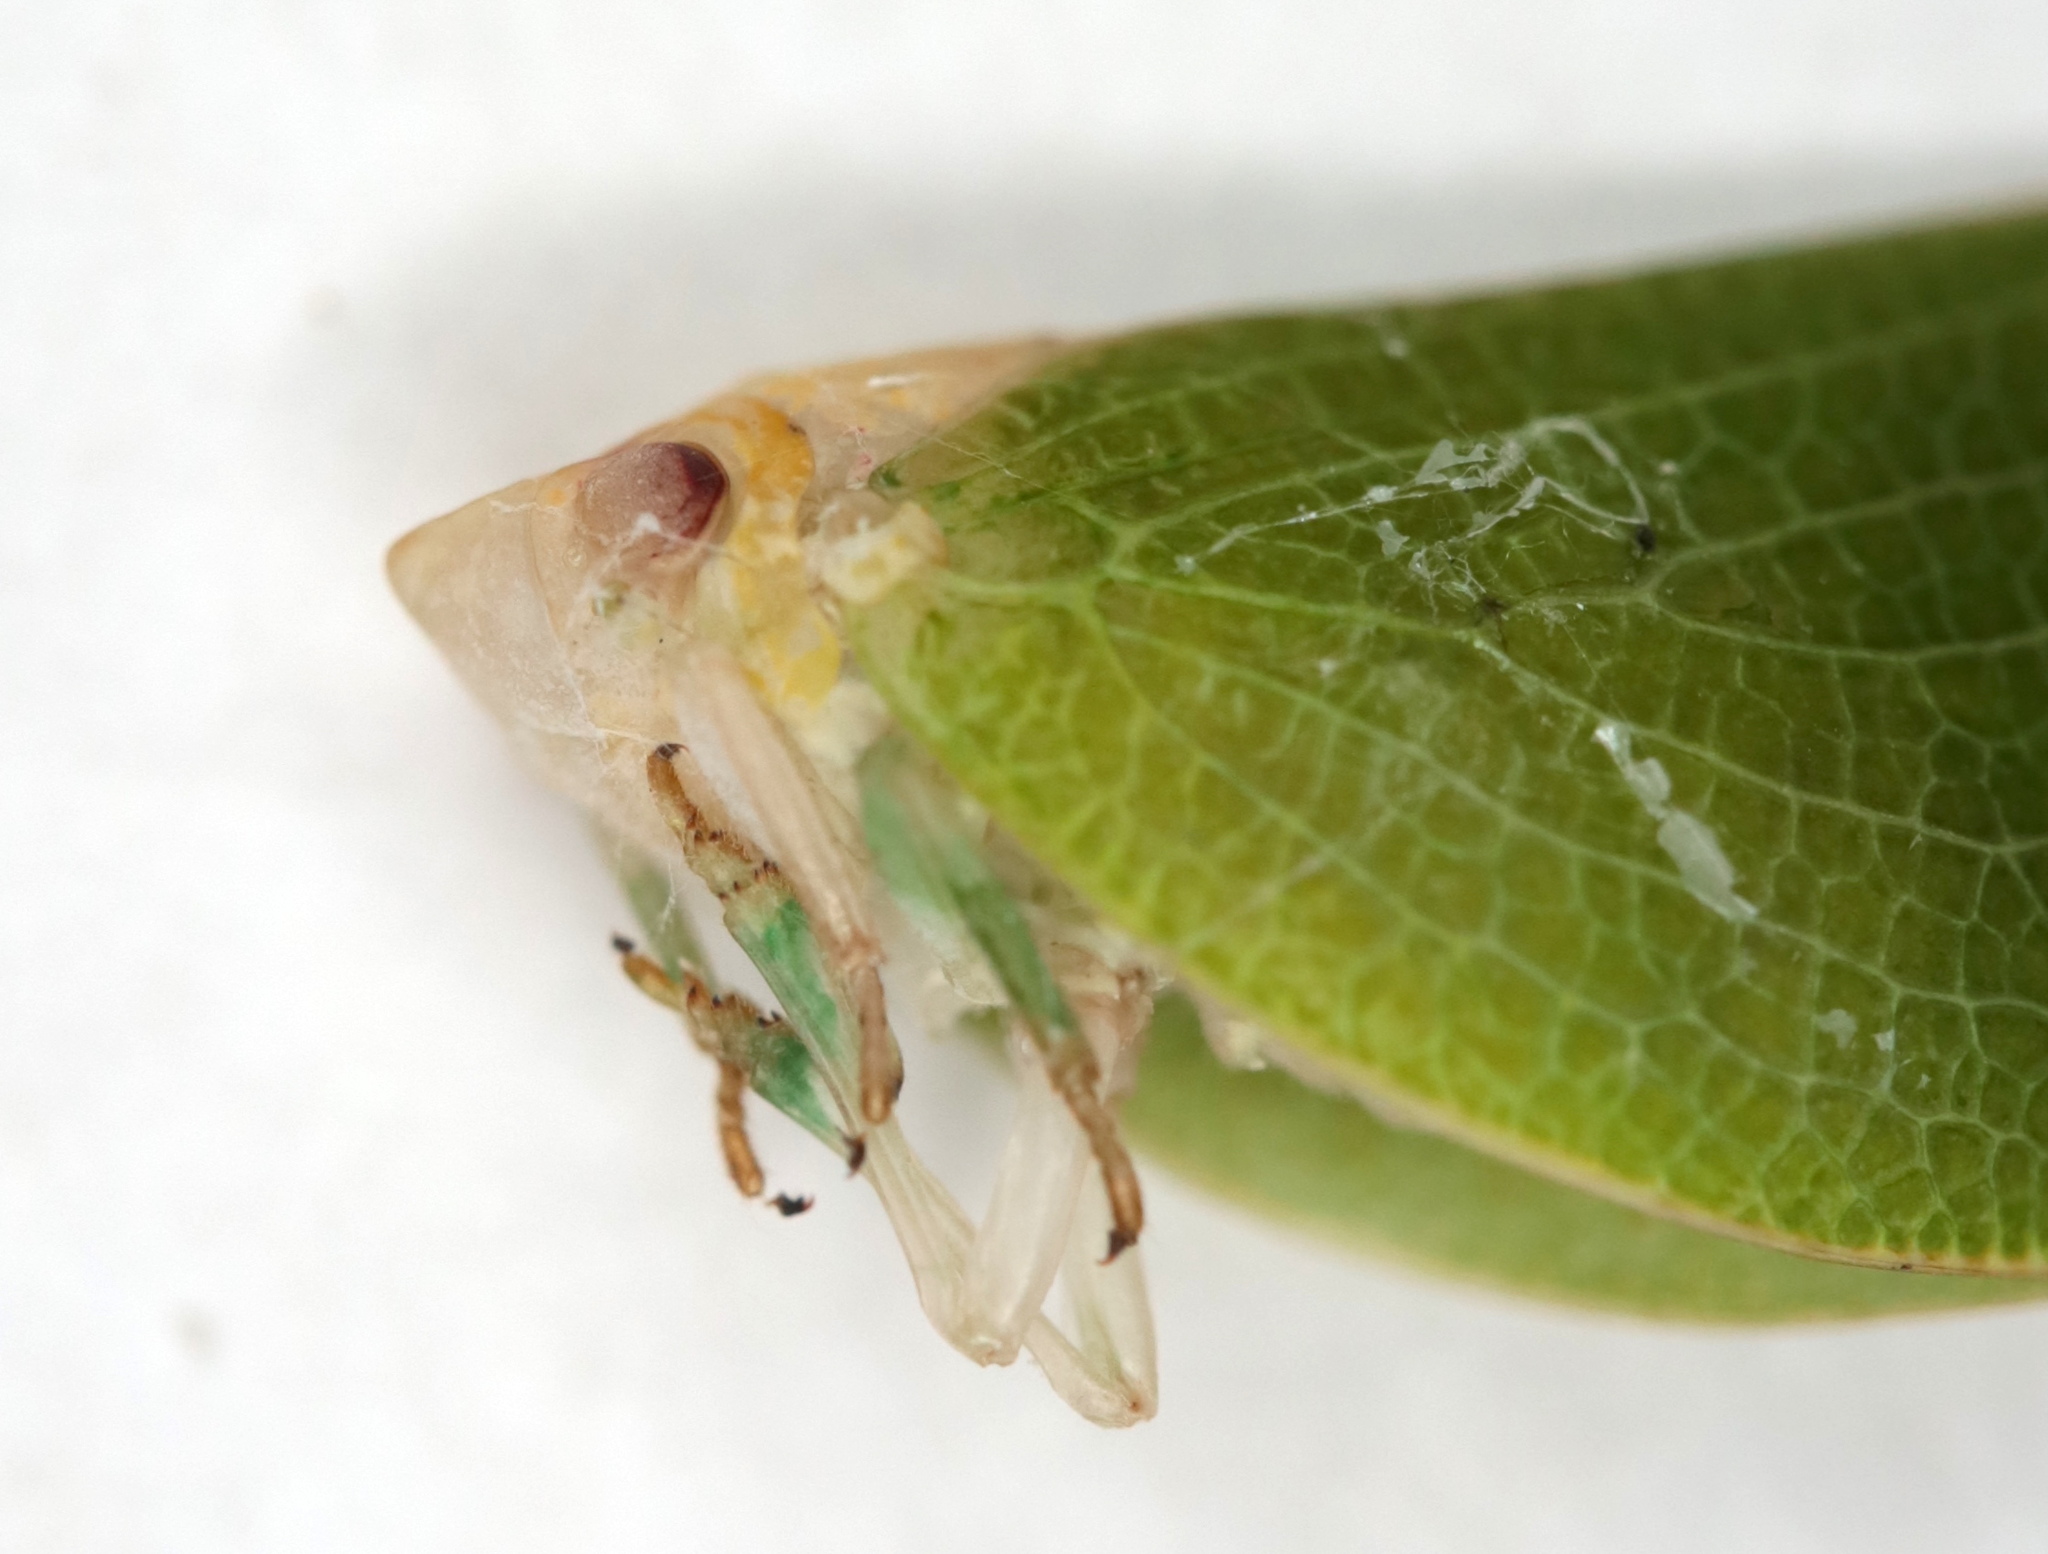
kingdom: Animalia
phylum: Arthropoda
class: Insecta
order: Hemiptera
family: Acanaloniidae
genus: Acanalonia
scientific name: Acanalonia conica
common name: Green cone-headed planthopper
